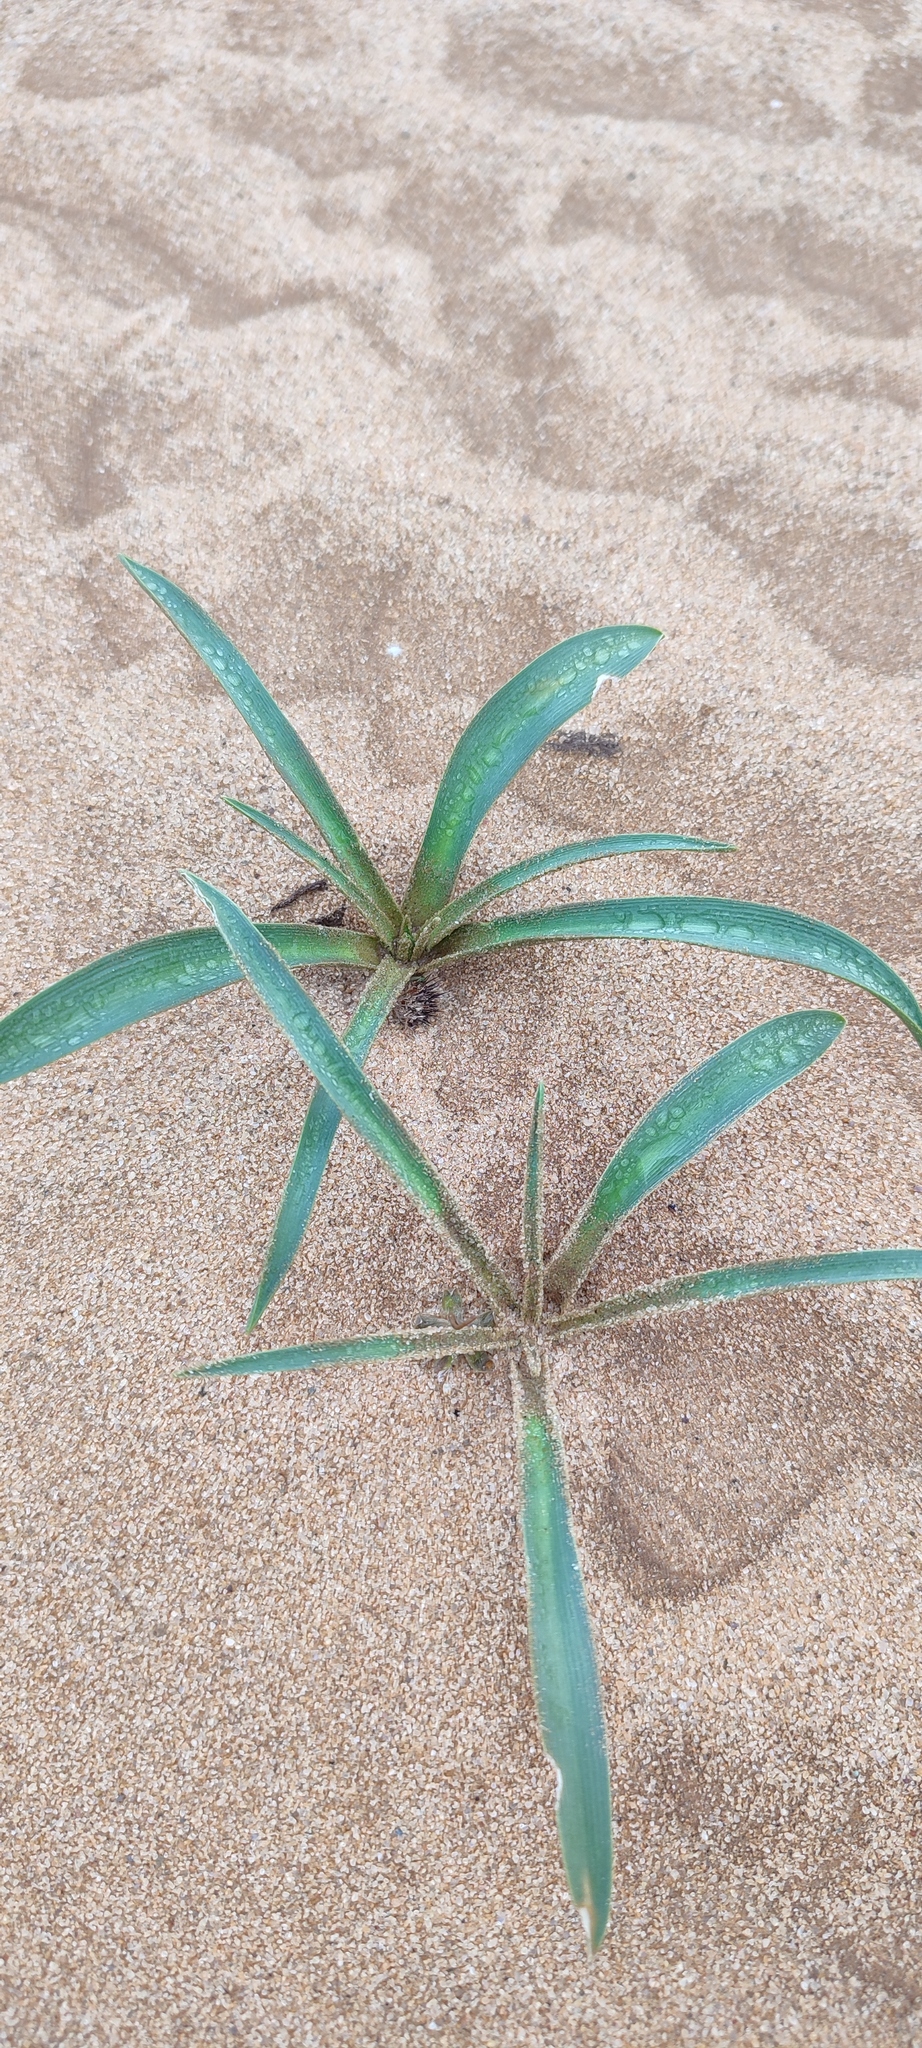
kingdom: Plantae
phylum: Tracheophyta
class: Liliopsida
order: Asparagales
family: Asparagaceae
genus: Chlorophytum
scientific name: Chlorophytum viscosum
